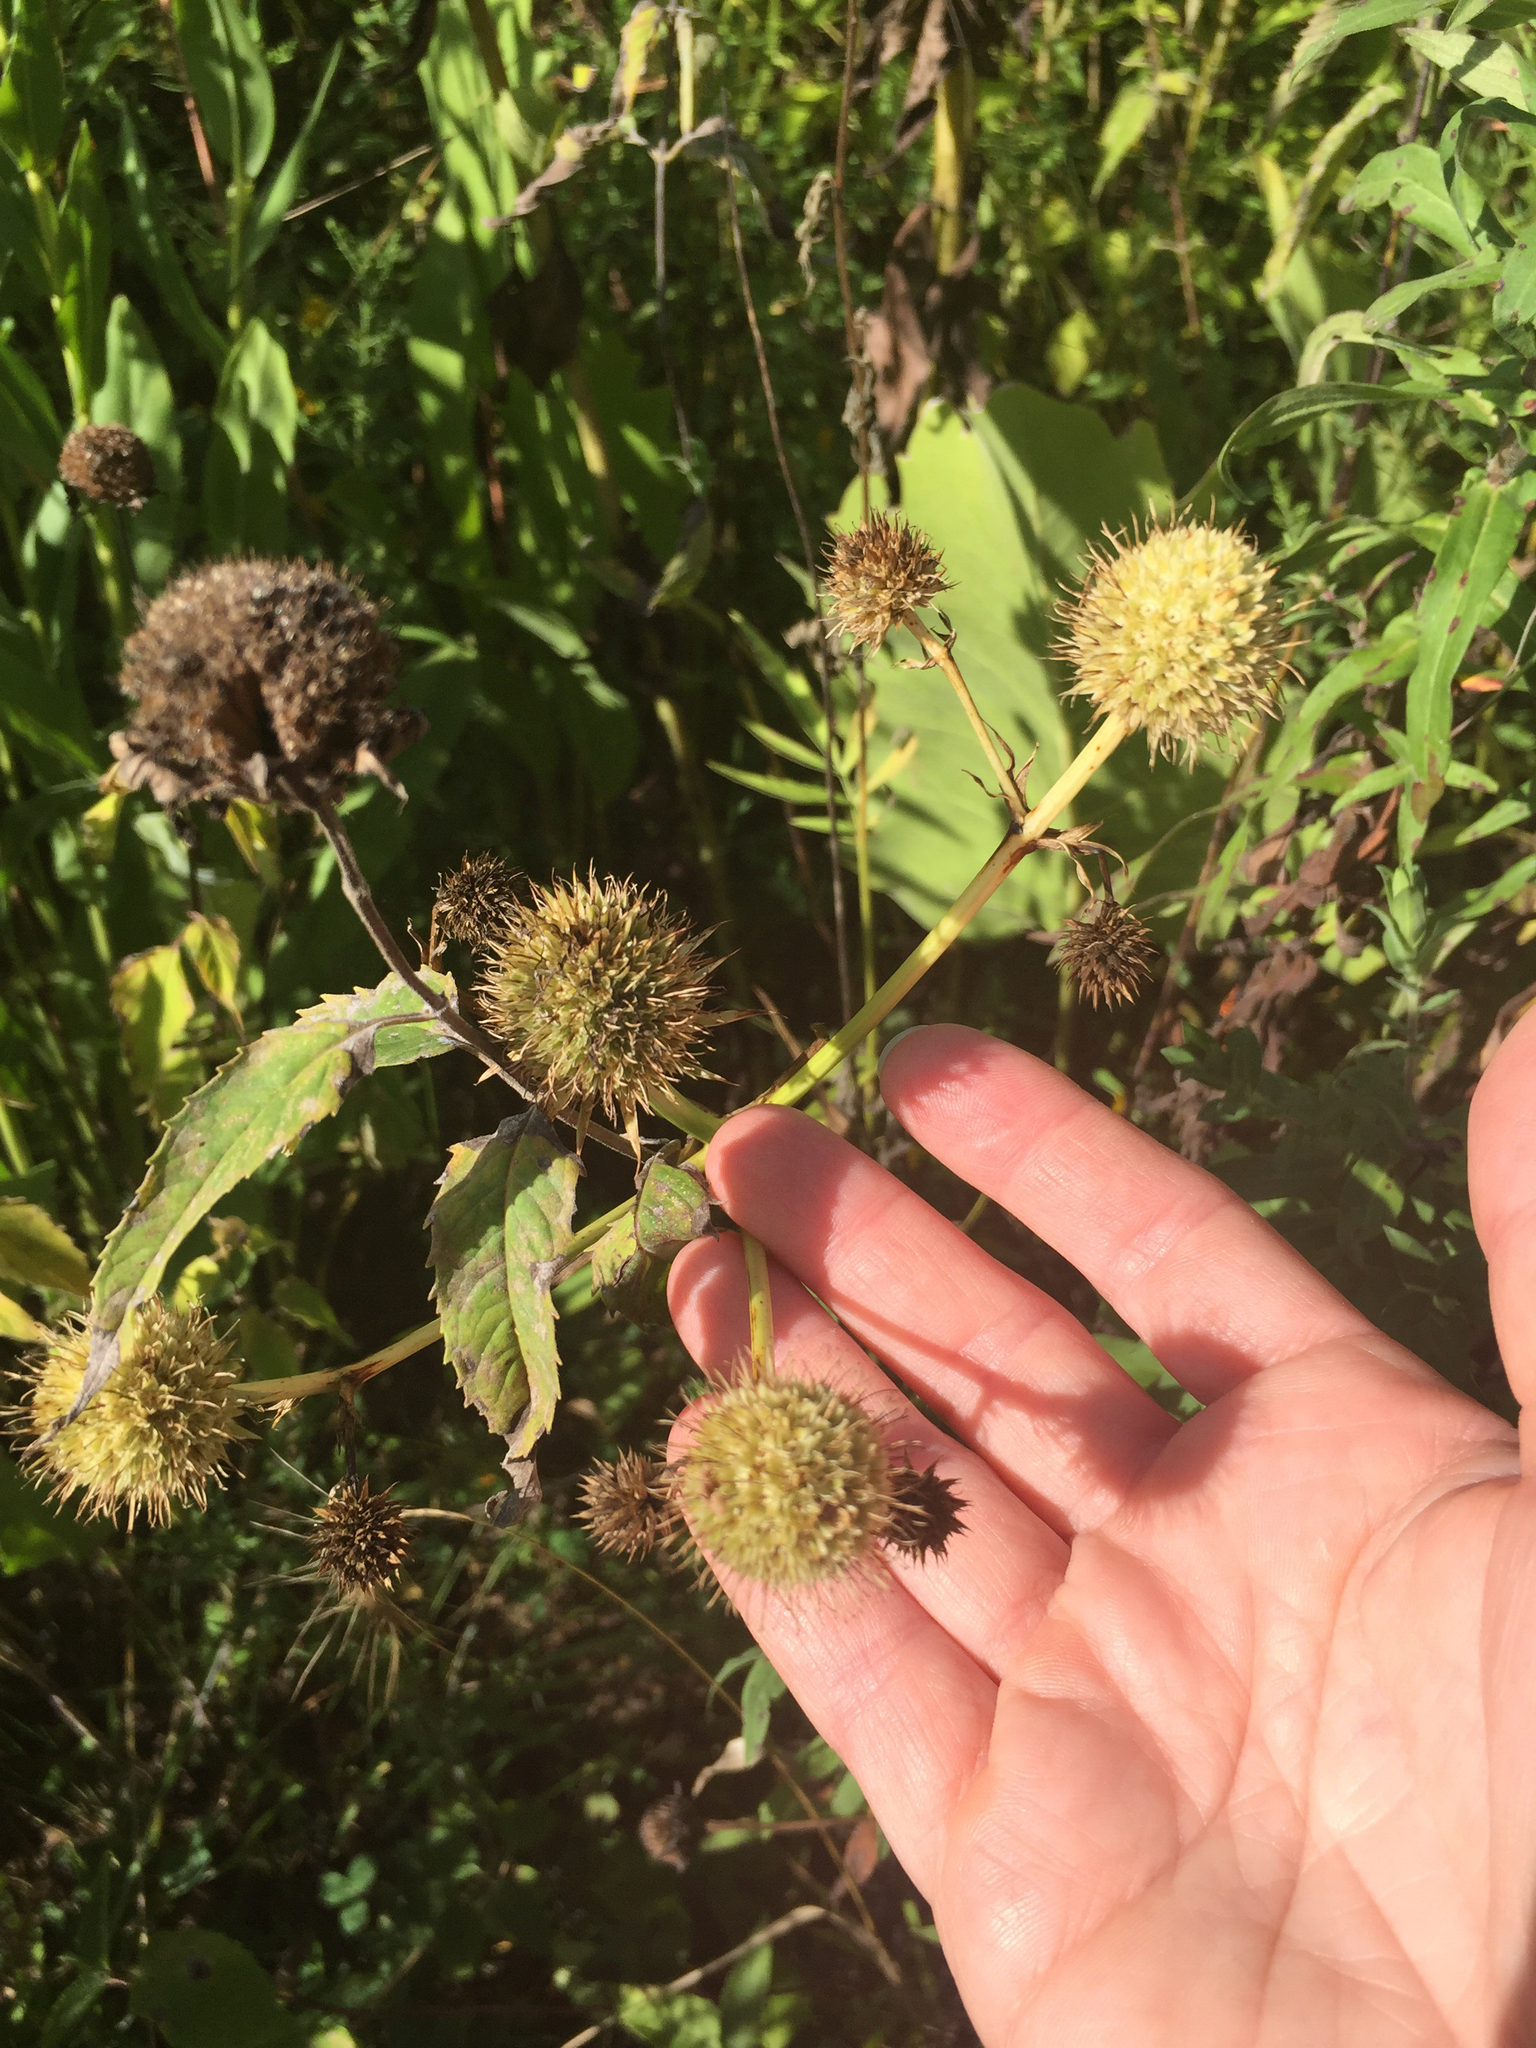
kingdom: Plantae
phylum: Tracheophyta
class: Magnoliopsida
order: Apiales
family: Apiaceae
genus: Eryngium
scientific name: Eryngium yuccifolium
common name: Button eryngo
